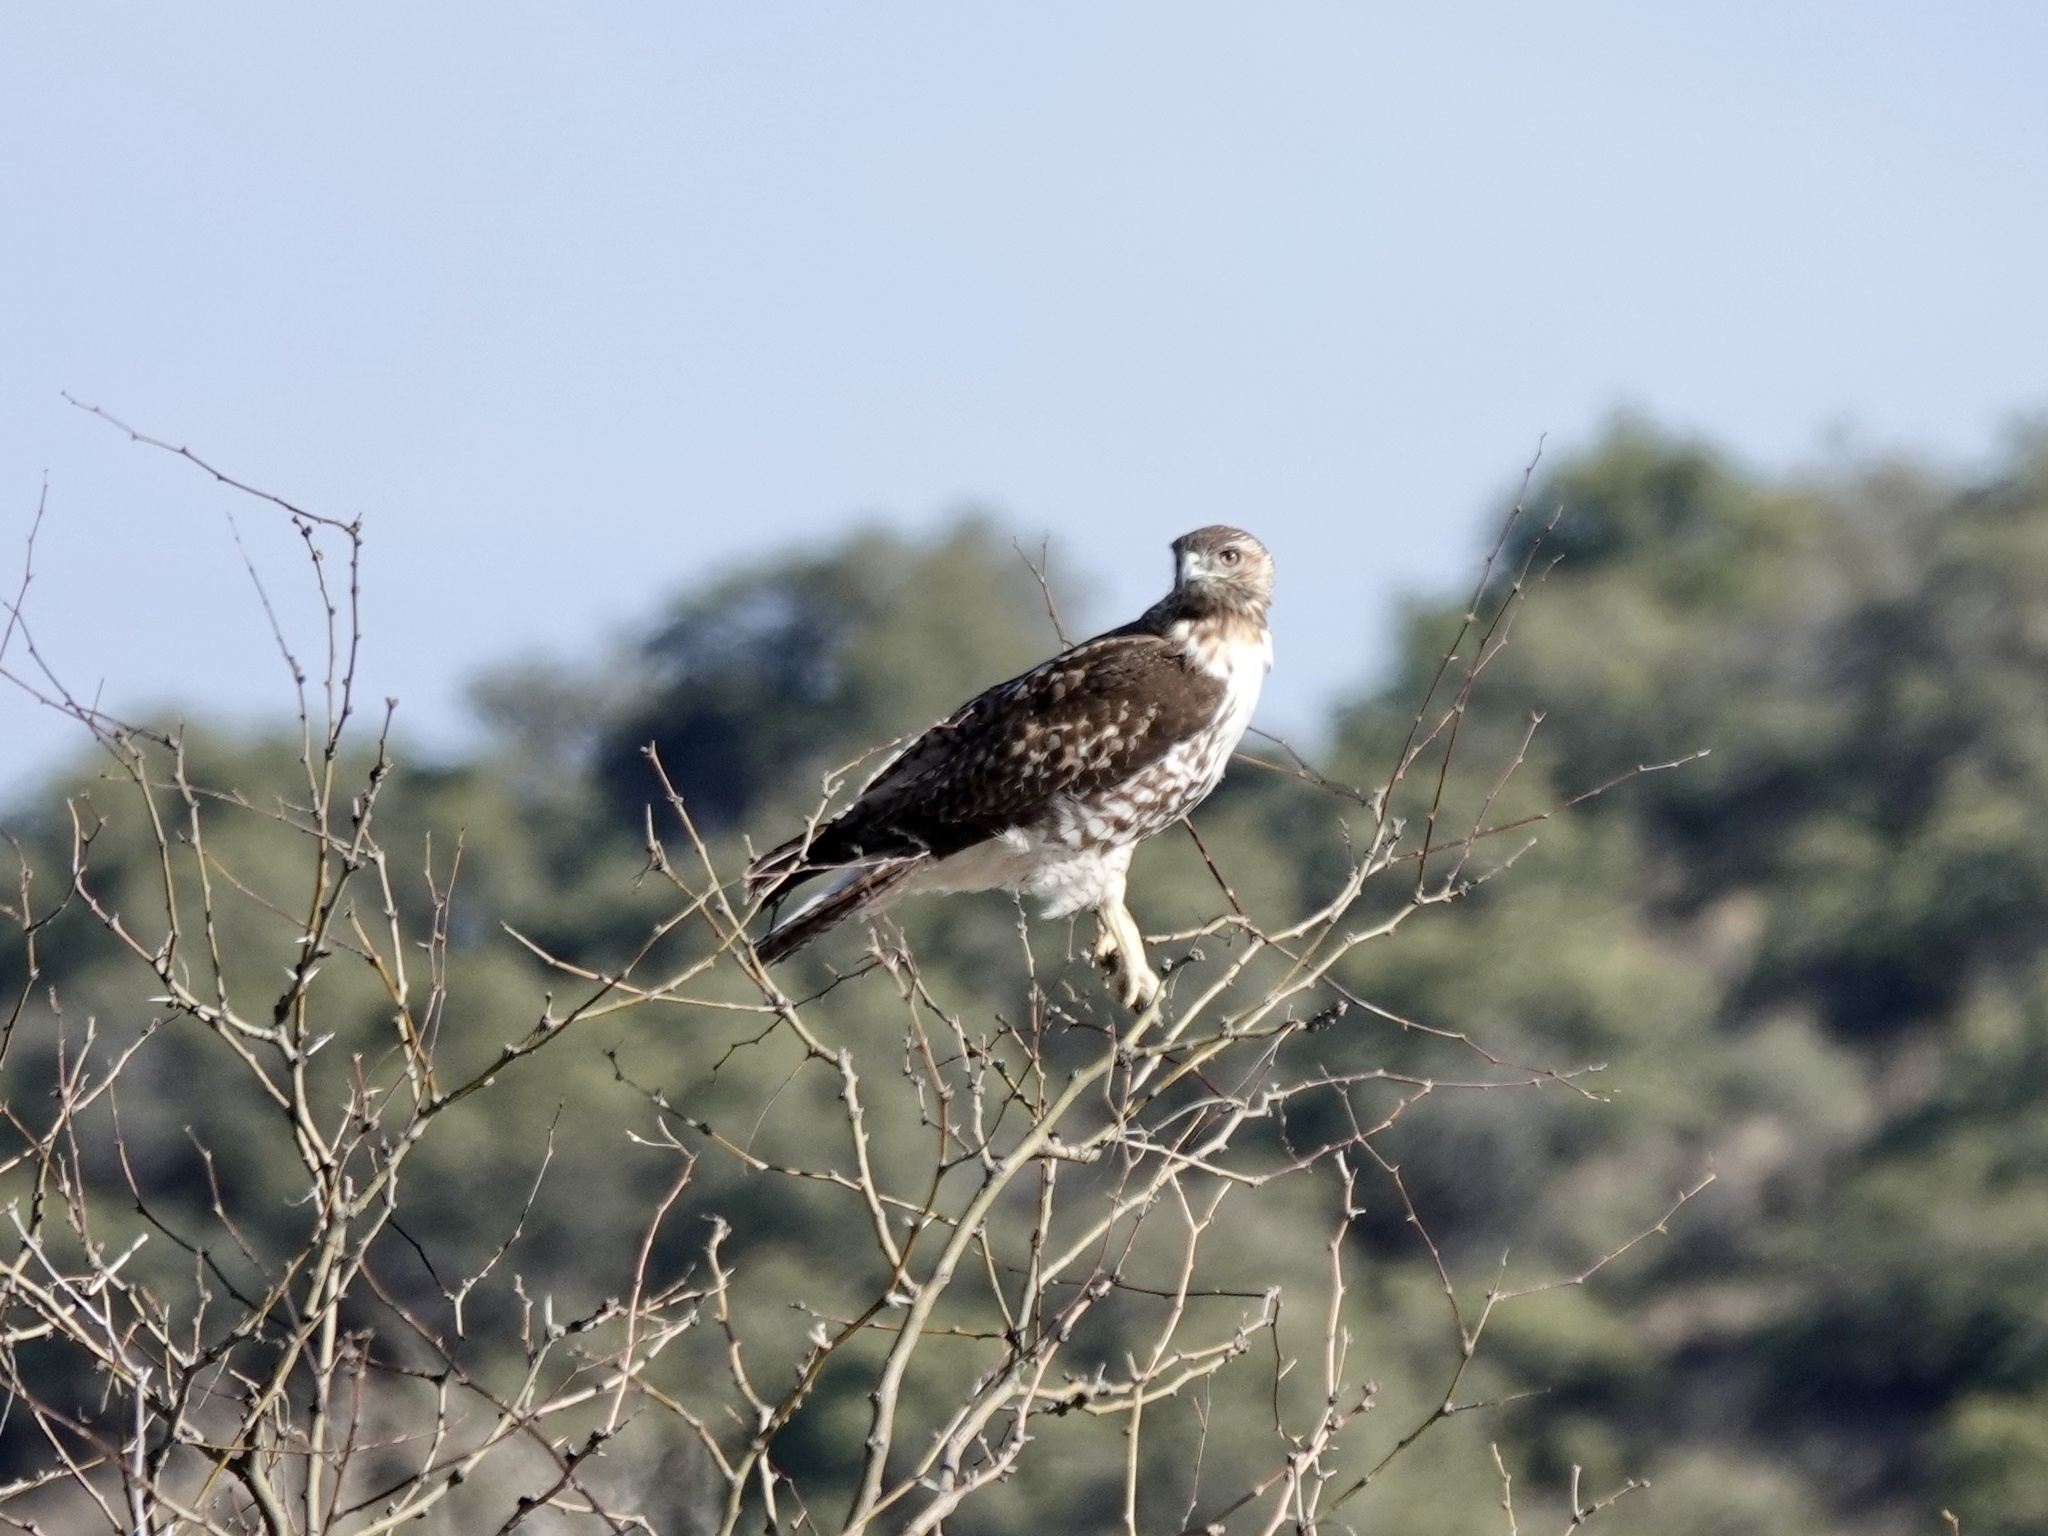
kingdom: Animalia
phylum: Chordata
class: Aves
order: Accipitriformes
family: Accipitridae
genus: Buteo
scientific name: Buteo jamaicensis
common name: Red-tailed hawk
